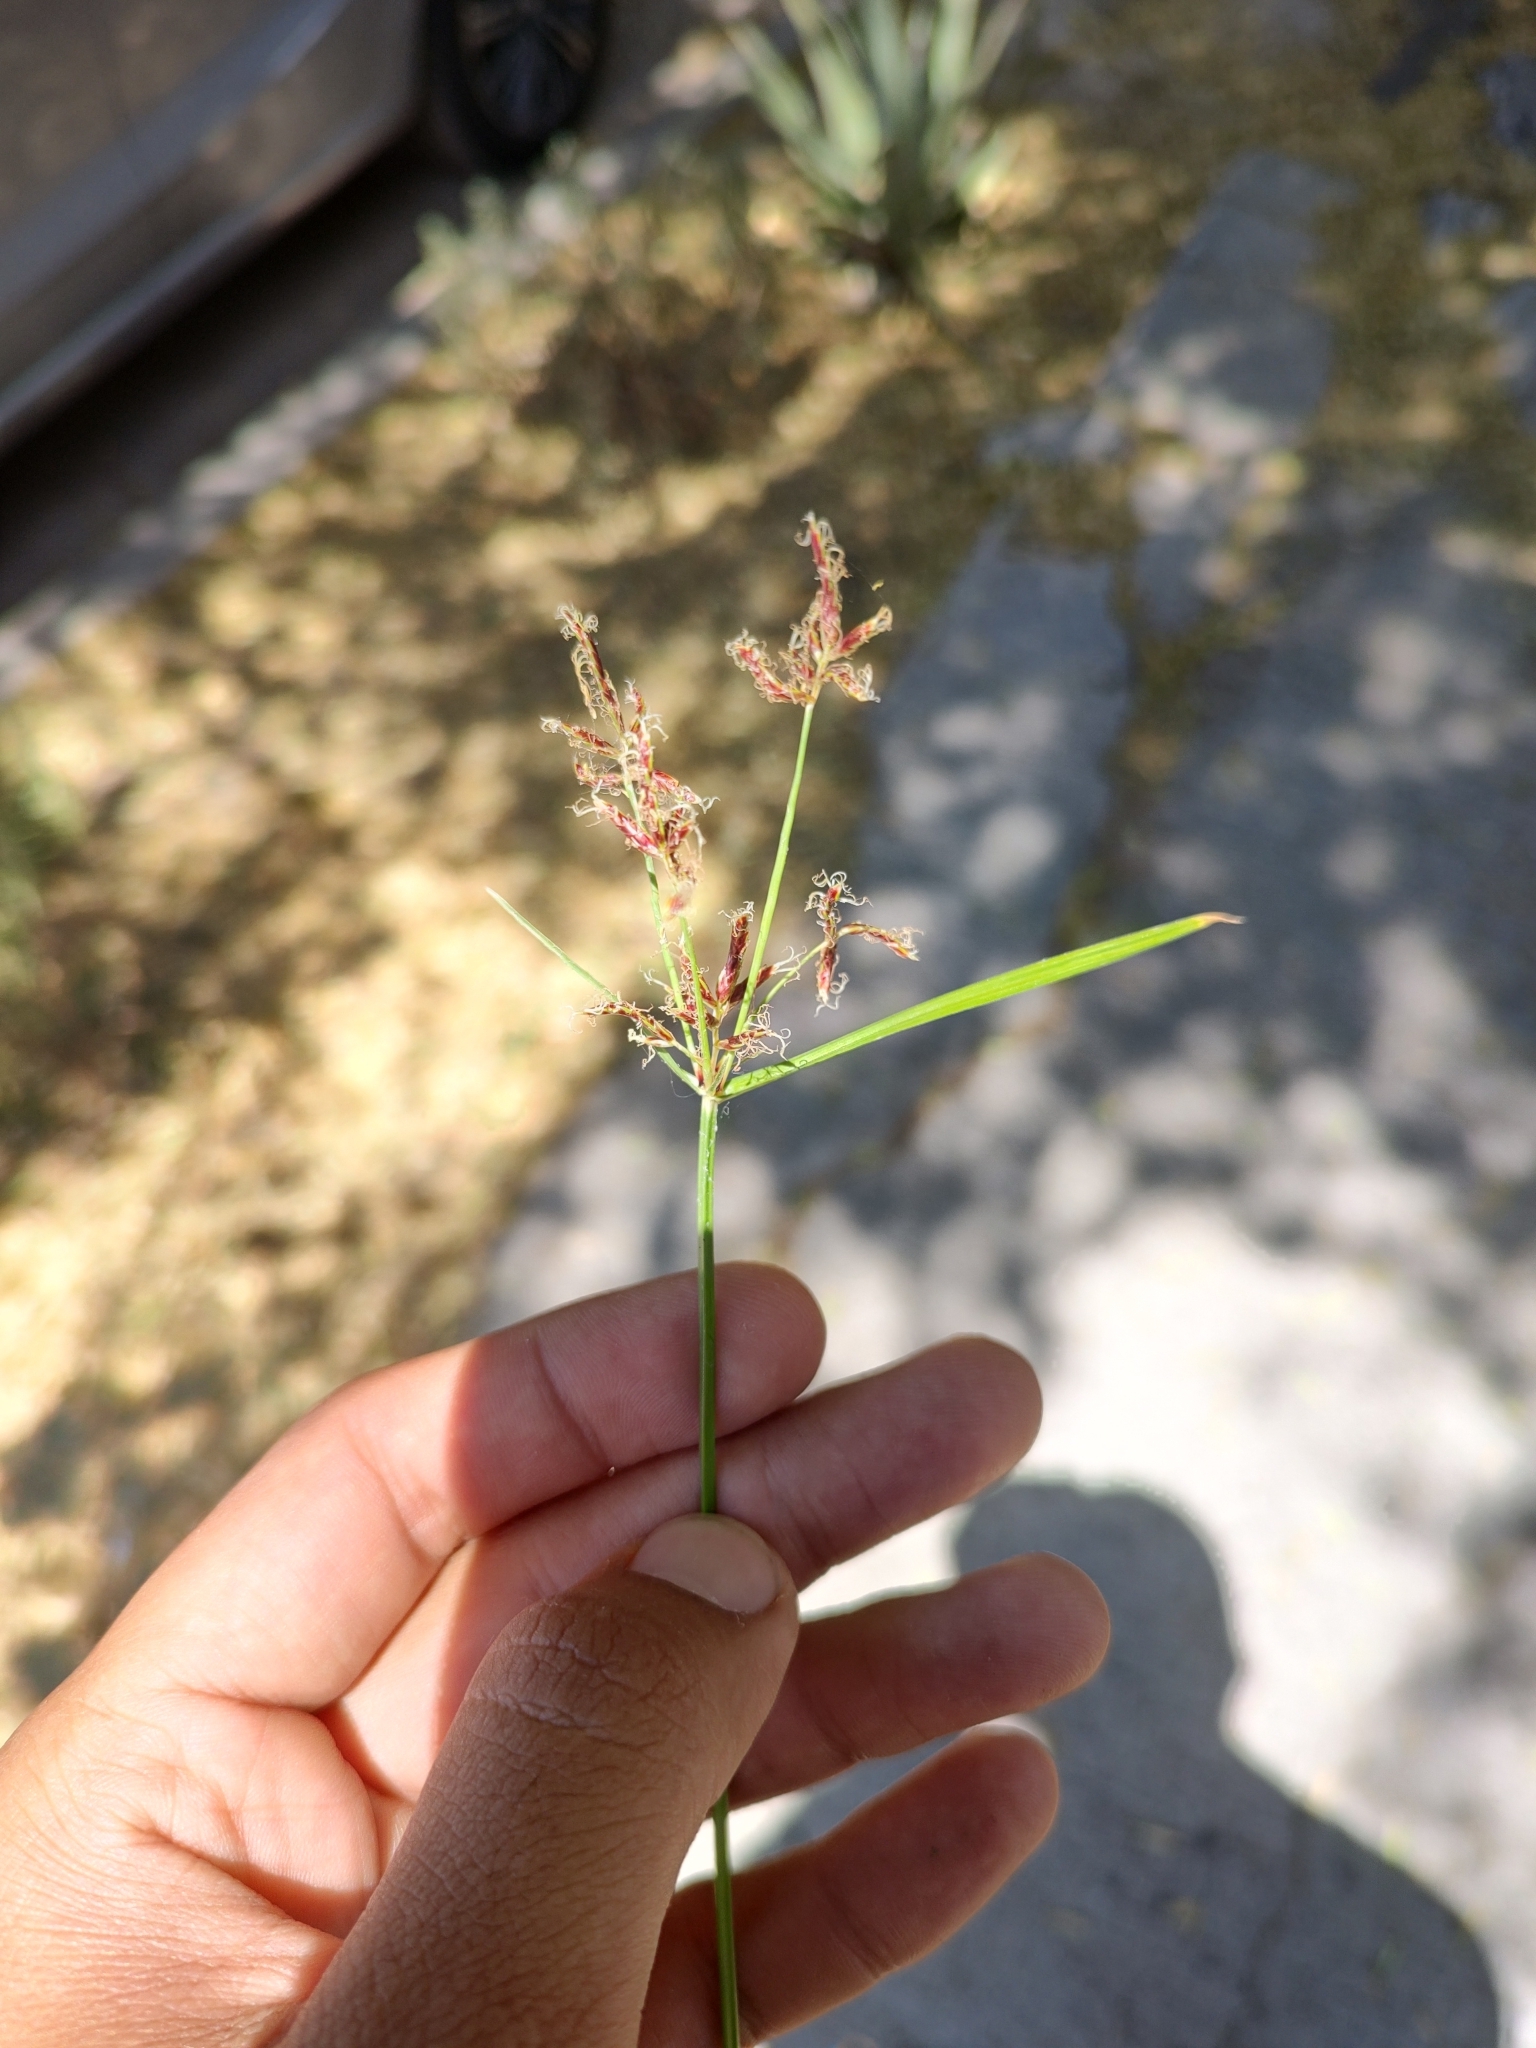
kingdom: Plantae
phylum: Tracheophyta
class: Liliopsida
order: Poales
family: Cyperaceae
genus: Cyperus
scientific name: Cyperus rotundus
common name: Nutgrass
